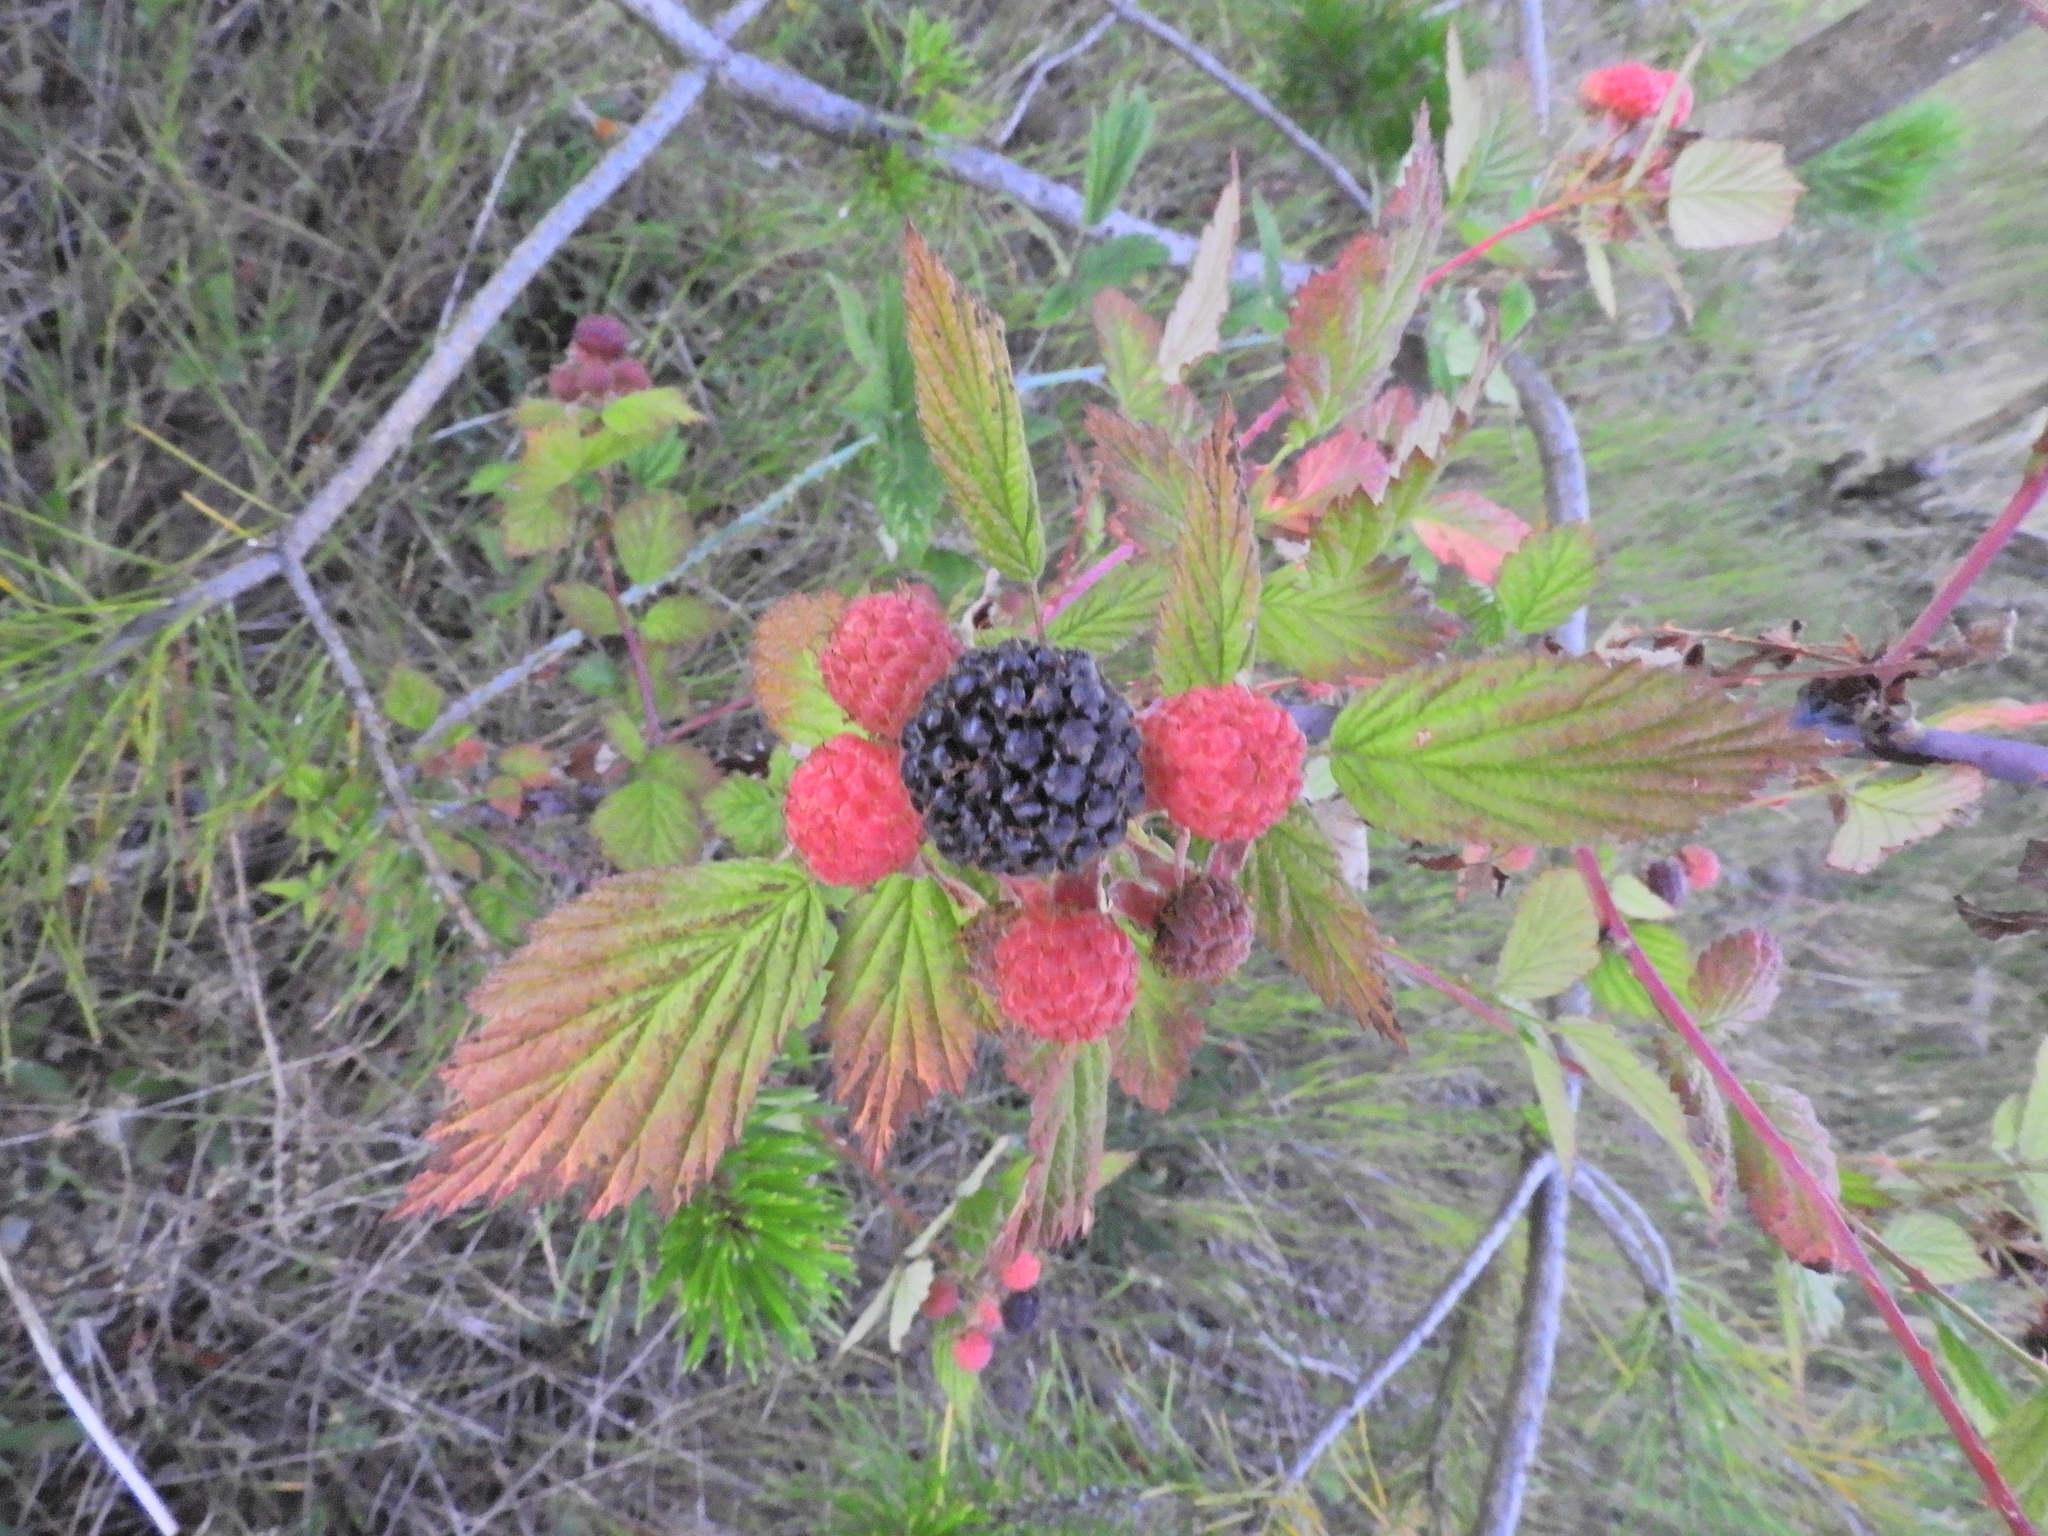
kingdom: Plantae
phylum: Tracheophyta
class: Magnoliopsida
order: Rosales
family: Rosaceae
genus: Rubus
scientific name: Rubus leucodermis
